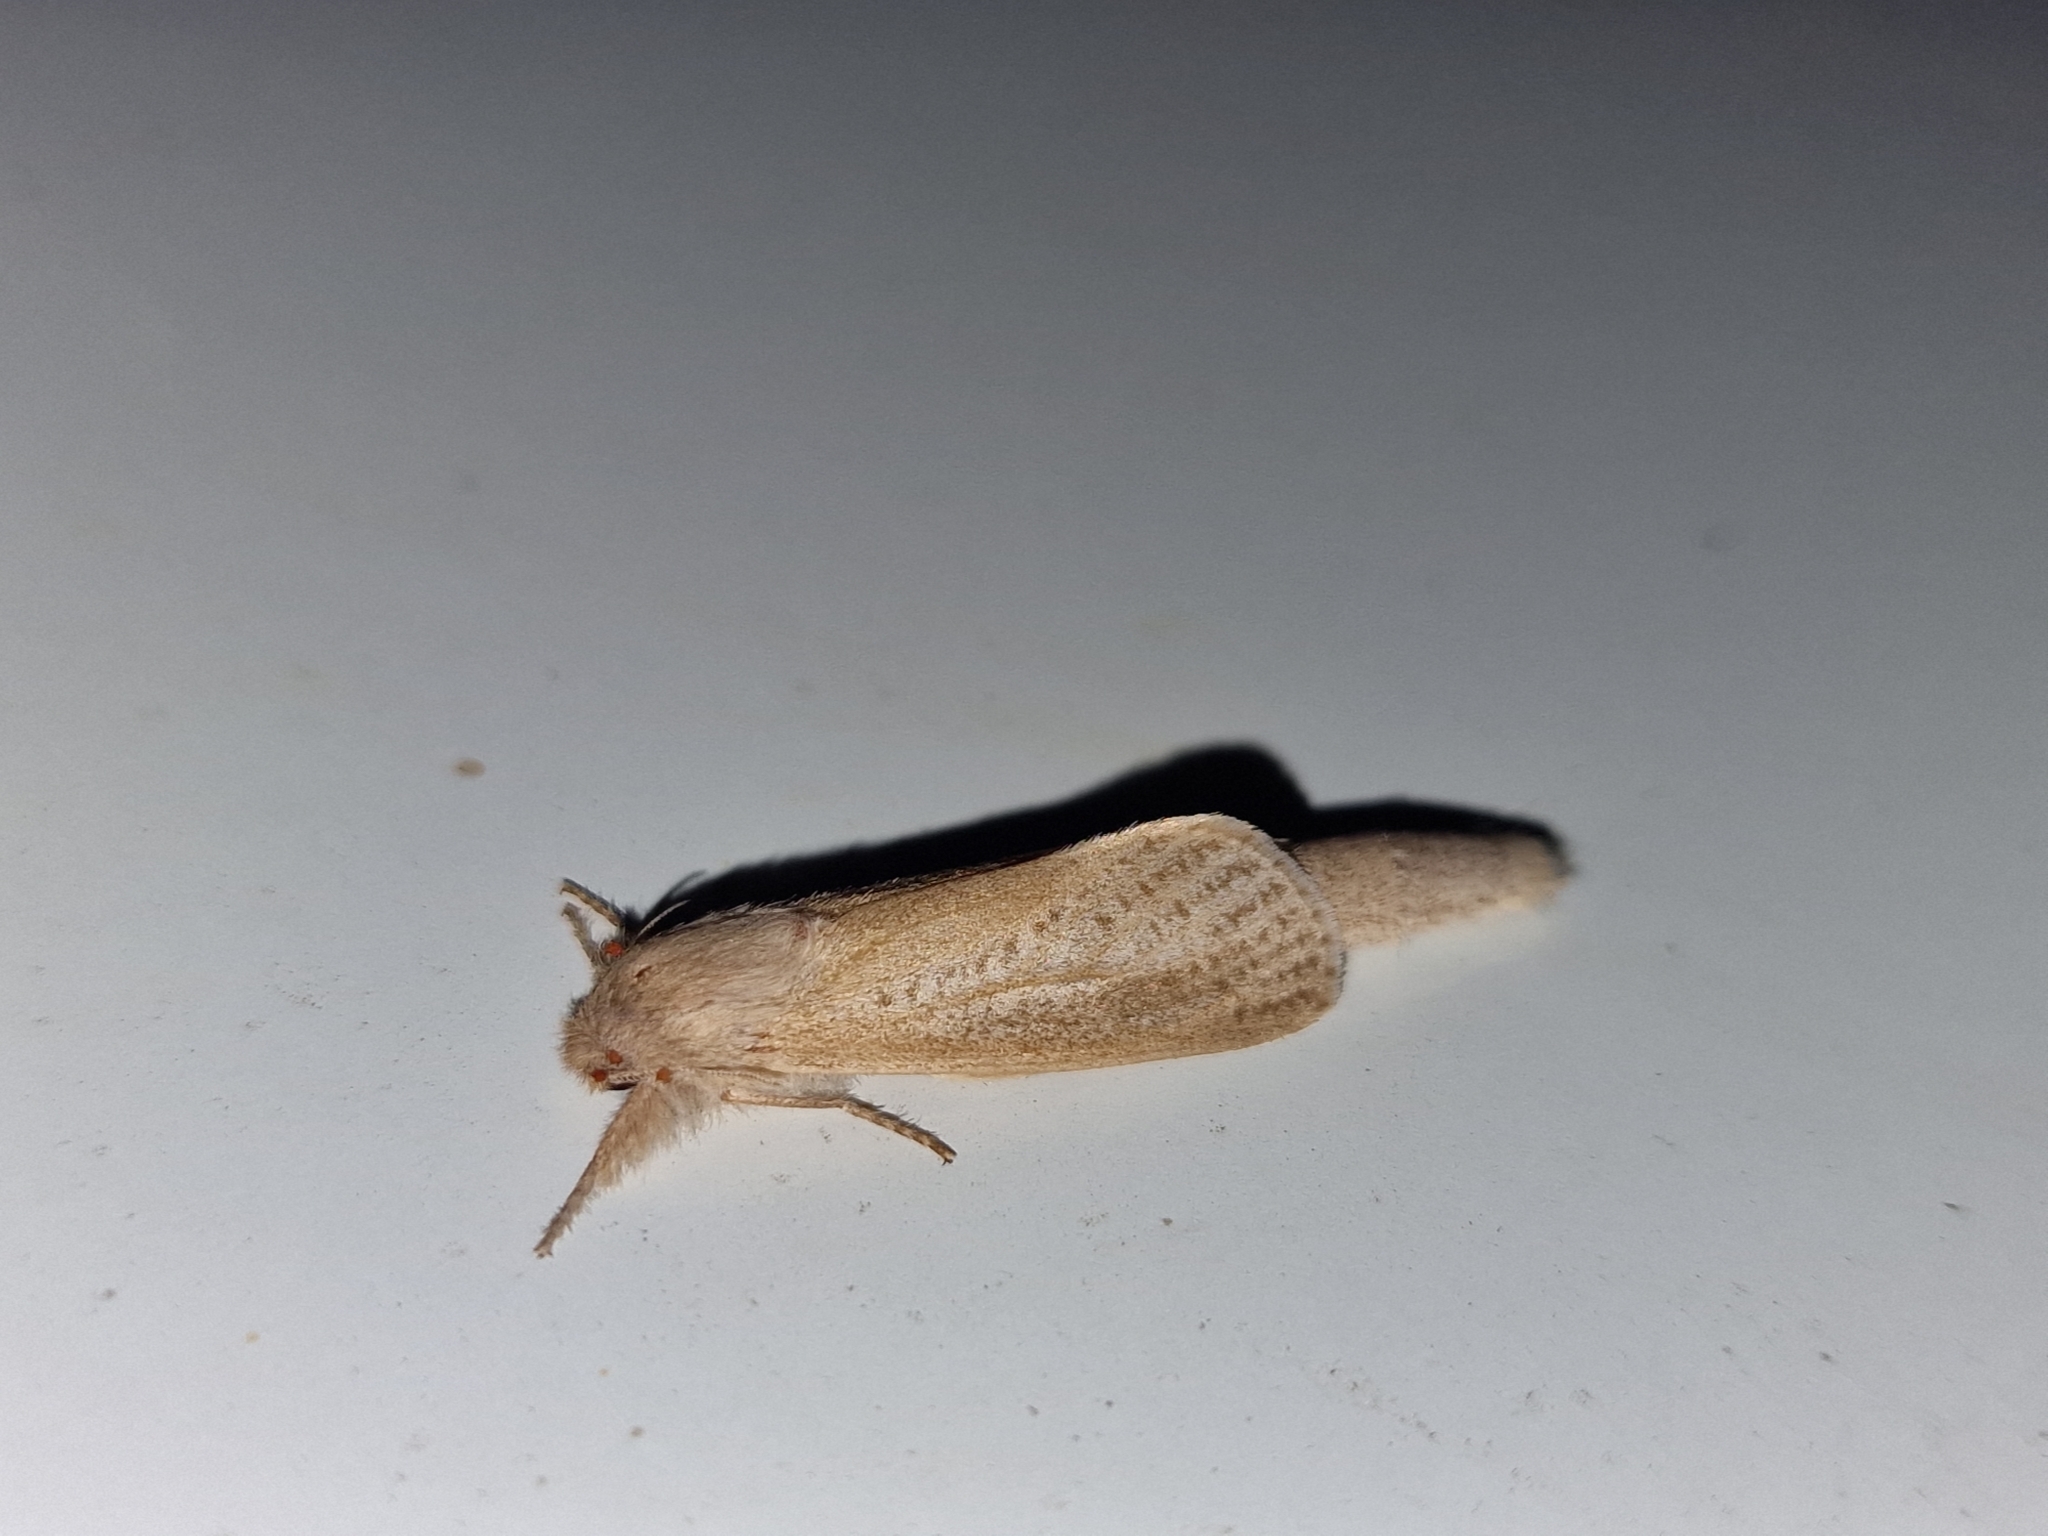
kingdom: Animalia
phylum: Arthropoda
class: Insecta
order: Lepidoptera
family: Cossidae
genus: Phragmataecia
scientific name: Phragmataecia castaneae
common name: Reed leopard
